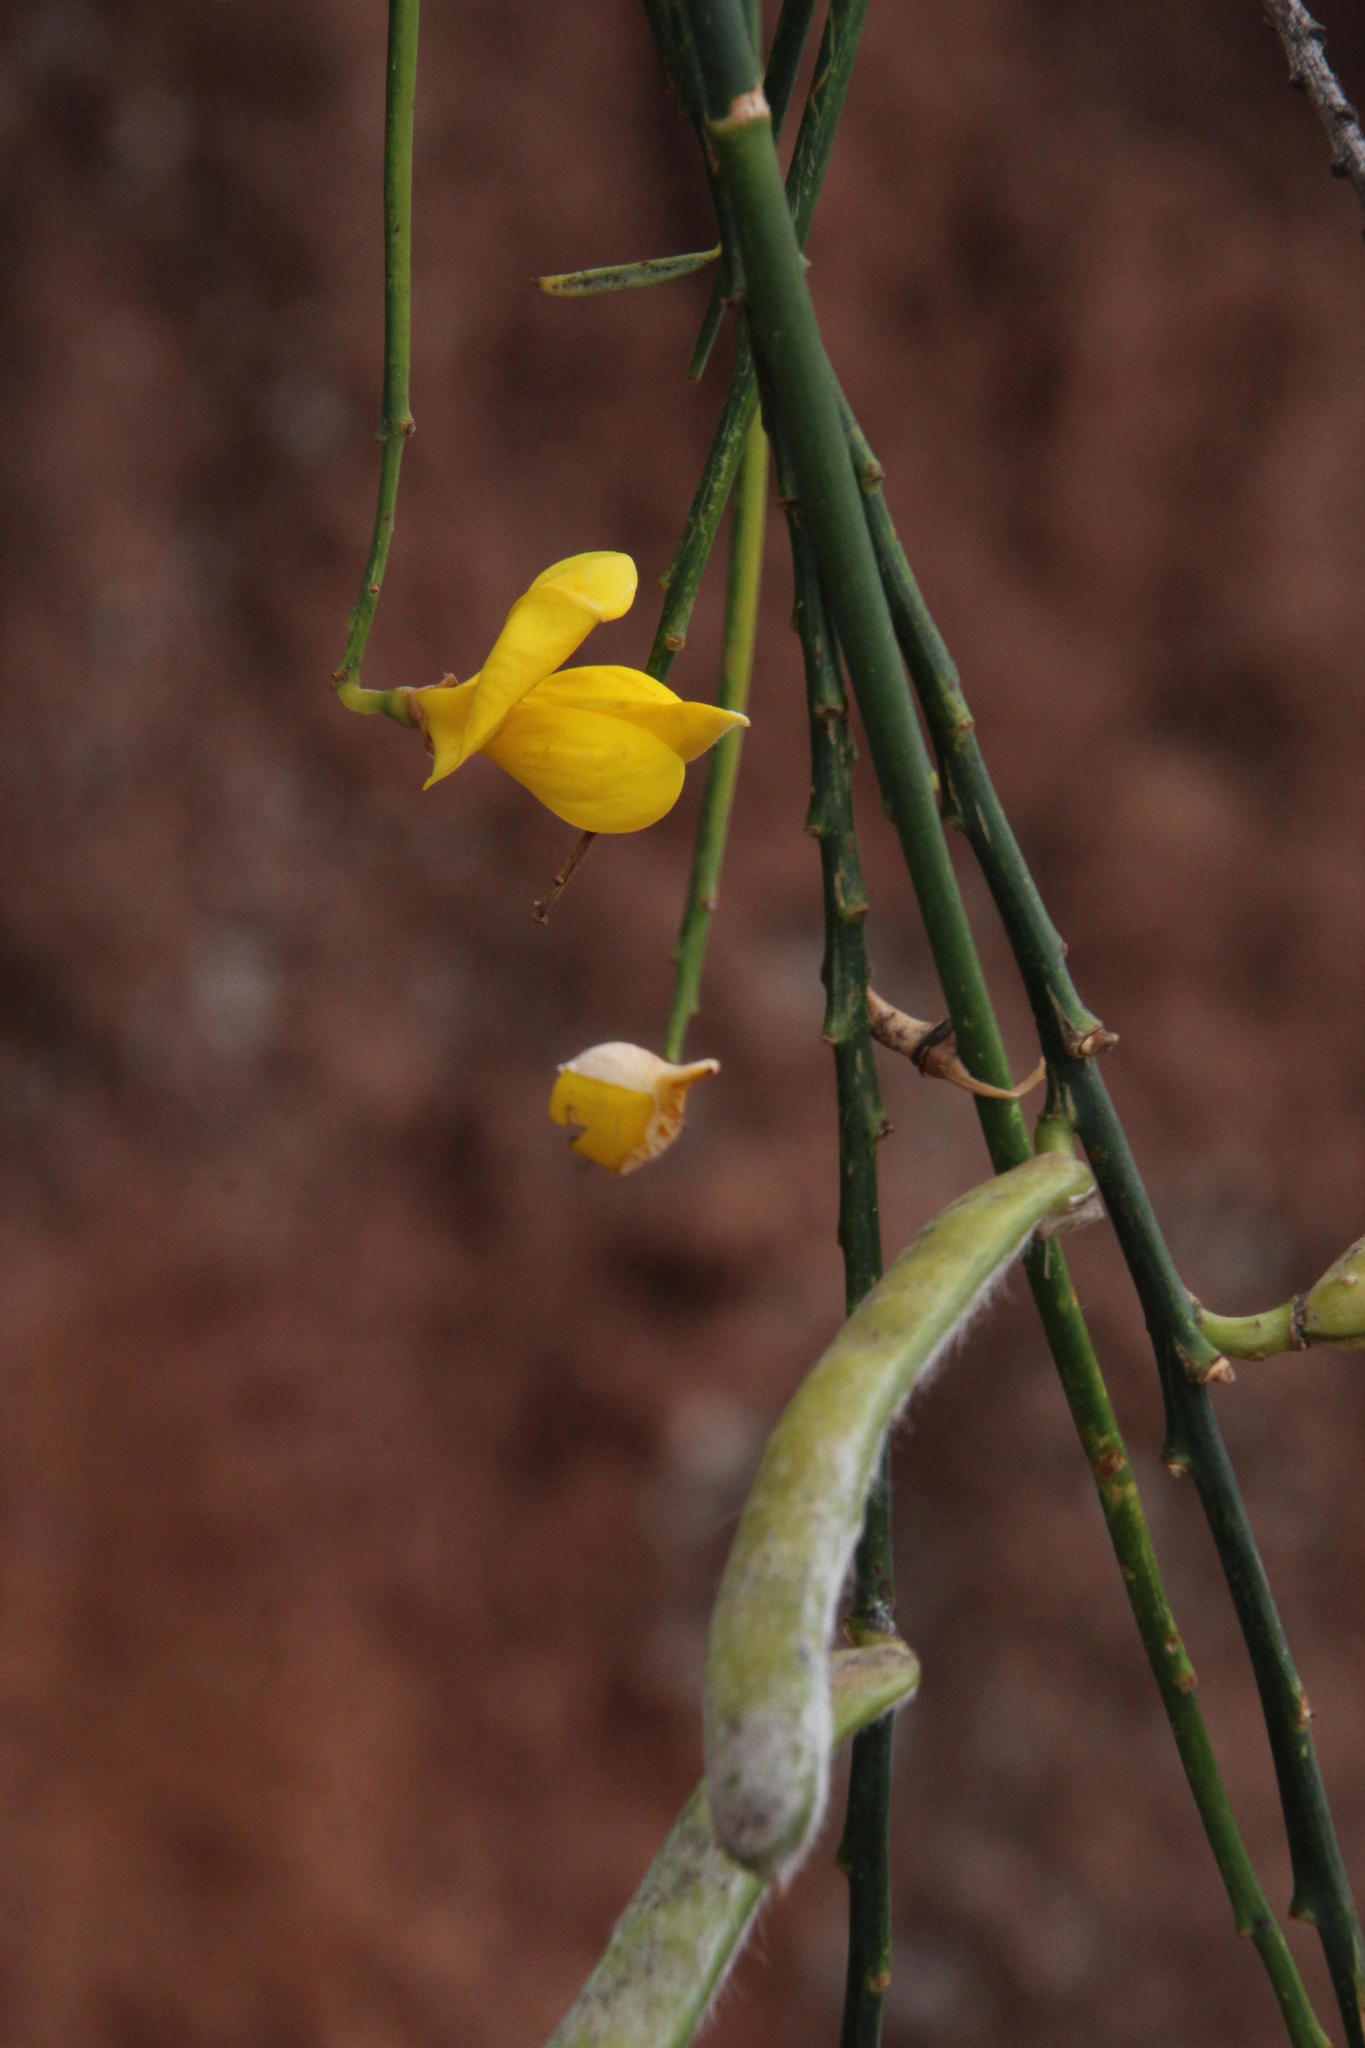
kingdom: Plantae
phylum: Tracheophyta
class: Magnoliopsida
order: Fabales
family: Fabaceae
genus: Spartium
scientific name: Spartium junceum
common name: Spanish broom
